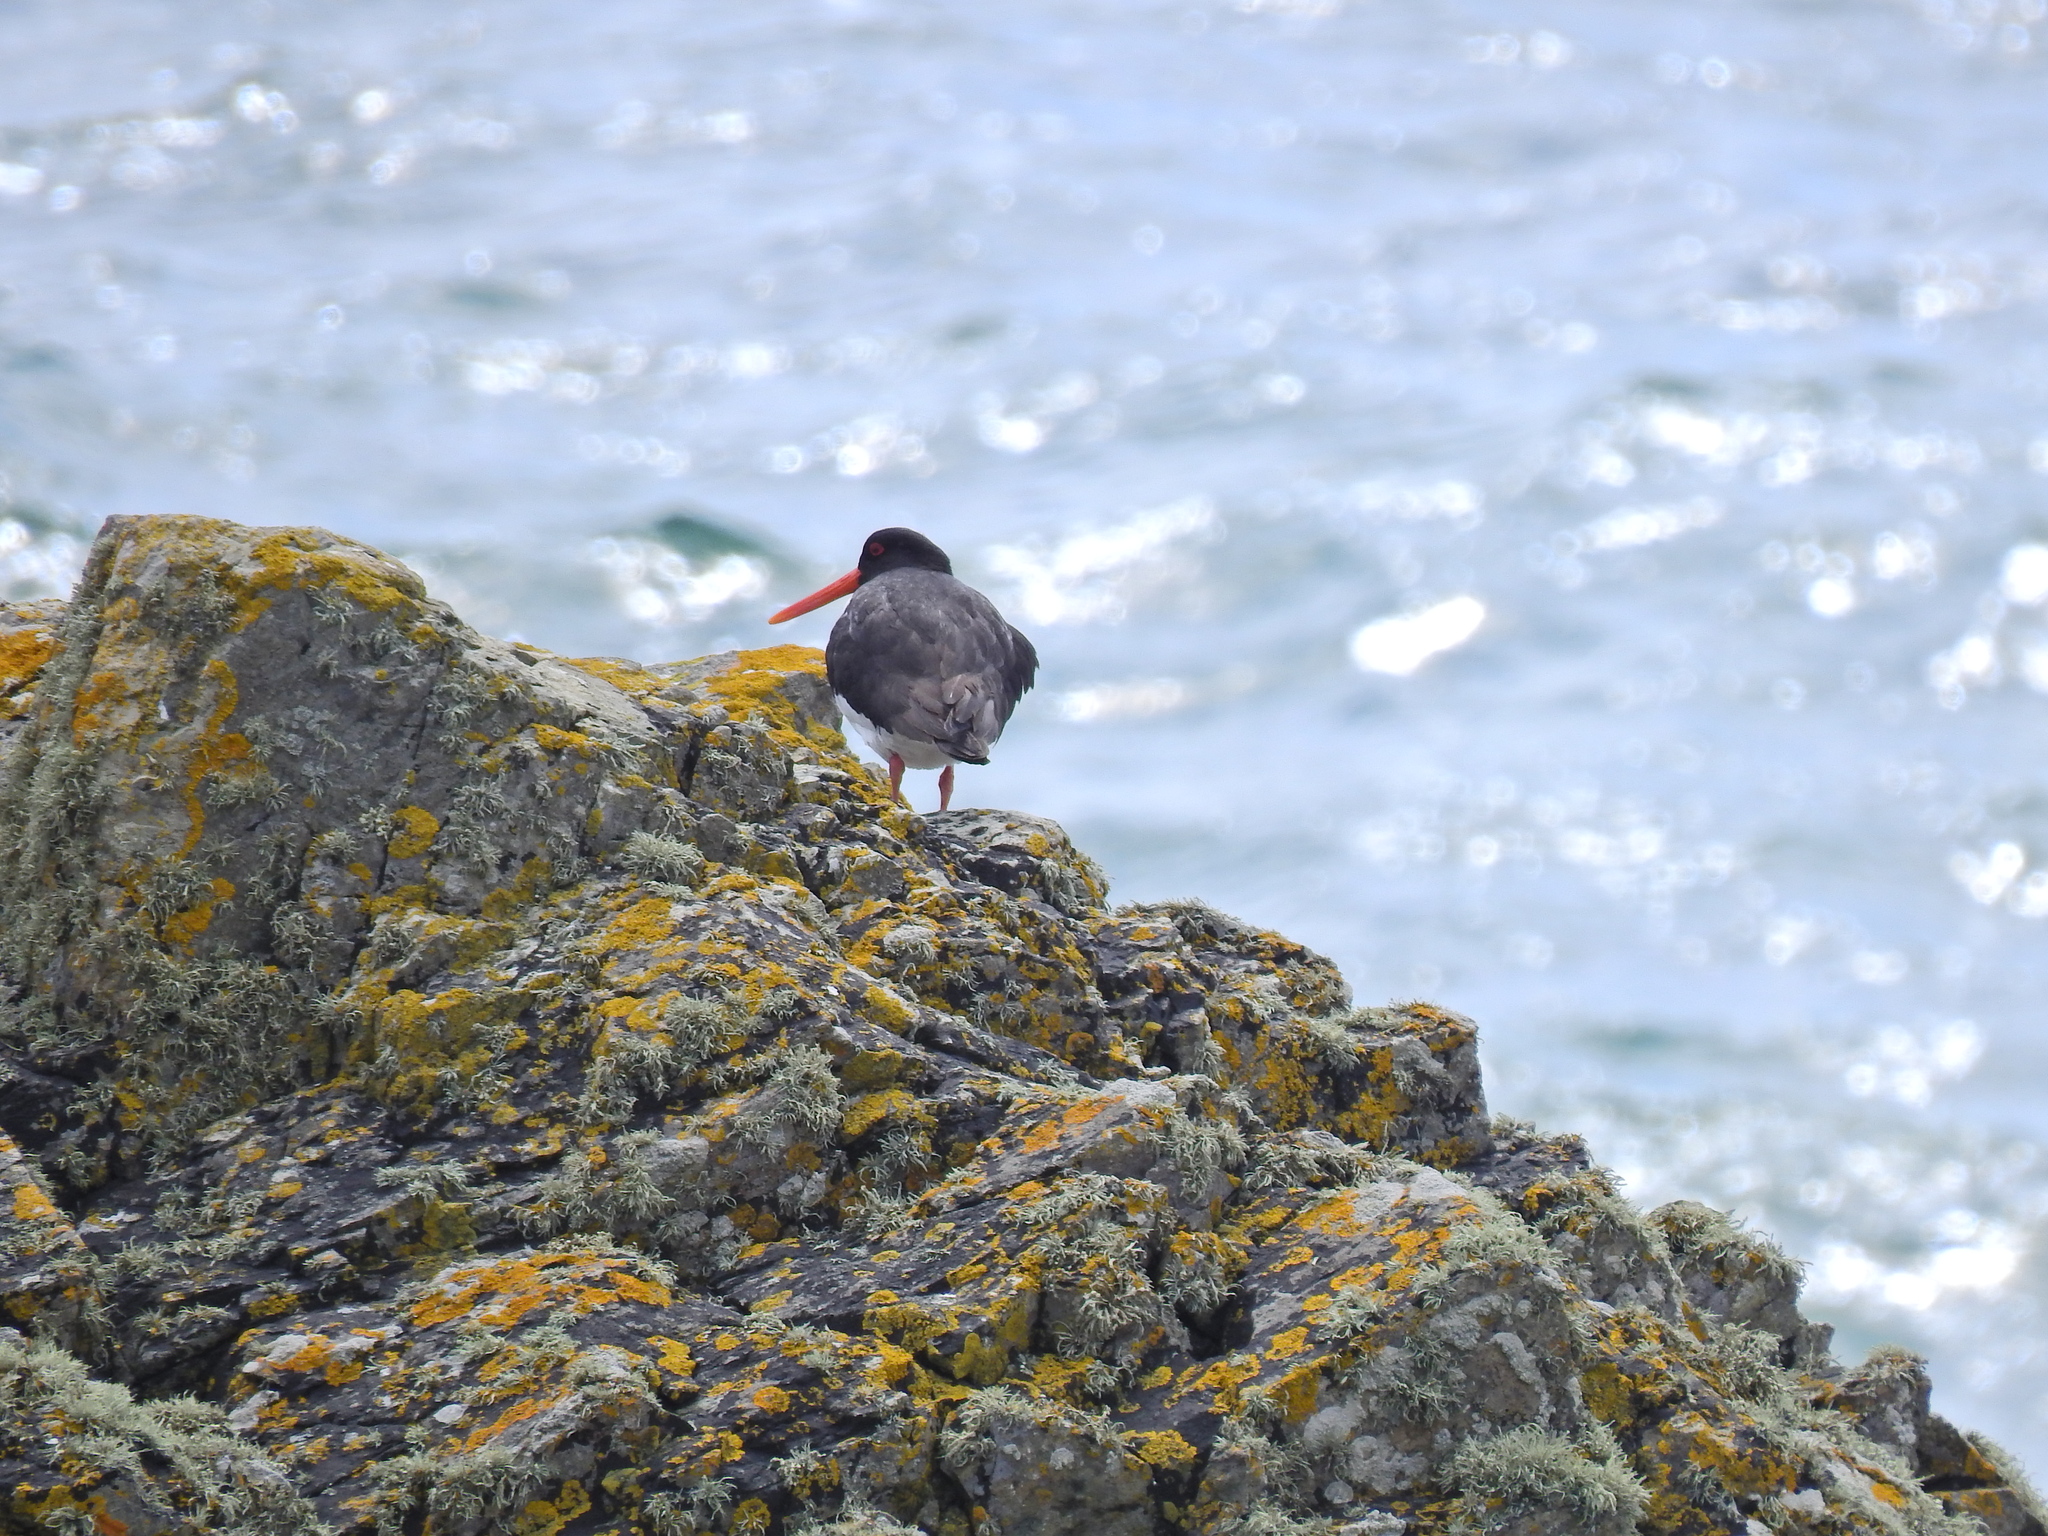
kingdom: Animalia
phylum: Chordata
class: Aves
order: Charadriiformes
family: Haematopodidae
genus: Haematopus
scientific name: Haematopus ostralegus
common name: Eurasian oystercatcher
